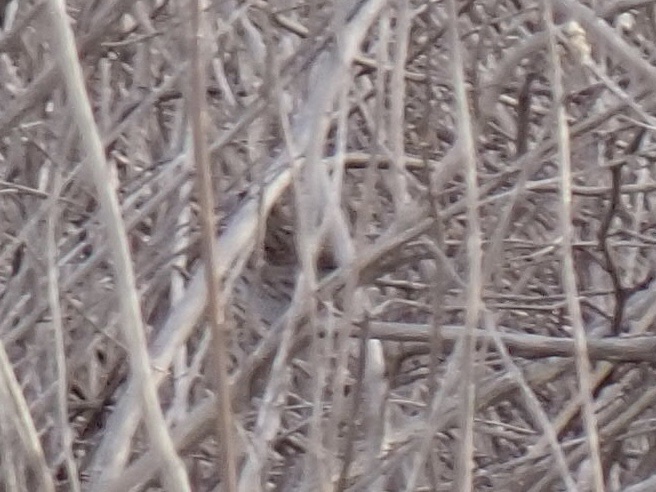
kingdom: Animalia
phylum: Chordata
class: Aves
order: Passeriformes
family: Passerellidae
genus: Melospiza
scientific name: Melospiza melodia
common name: Song sparrow
